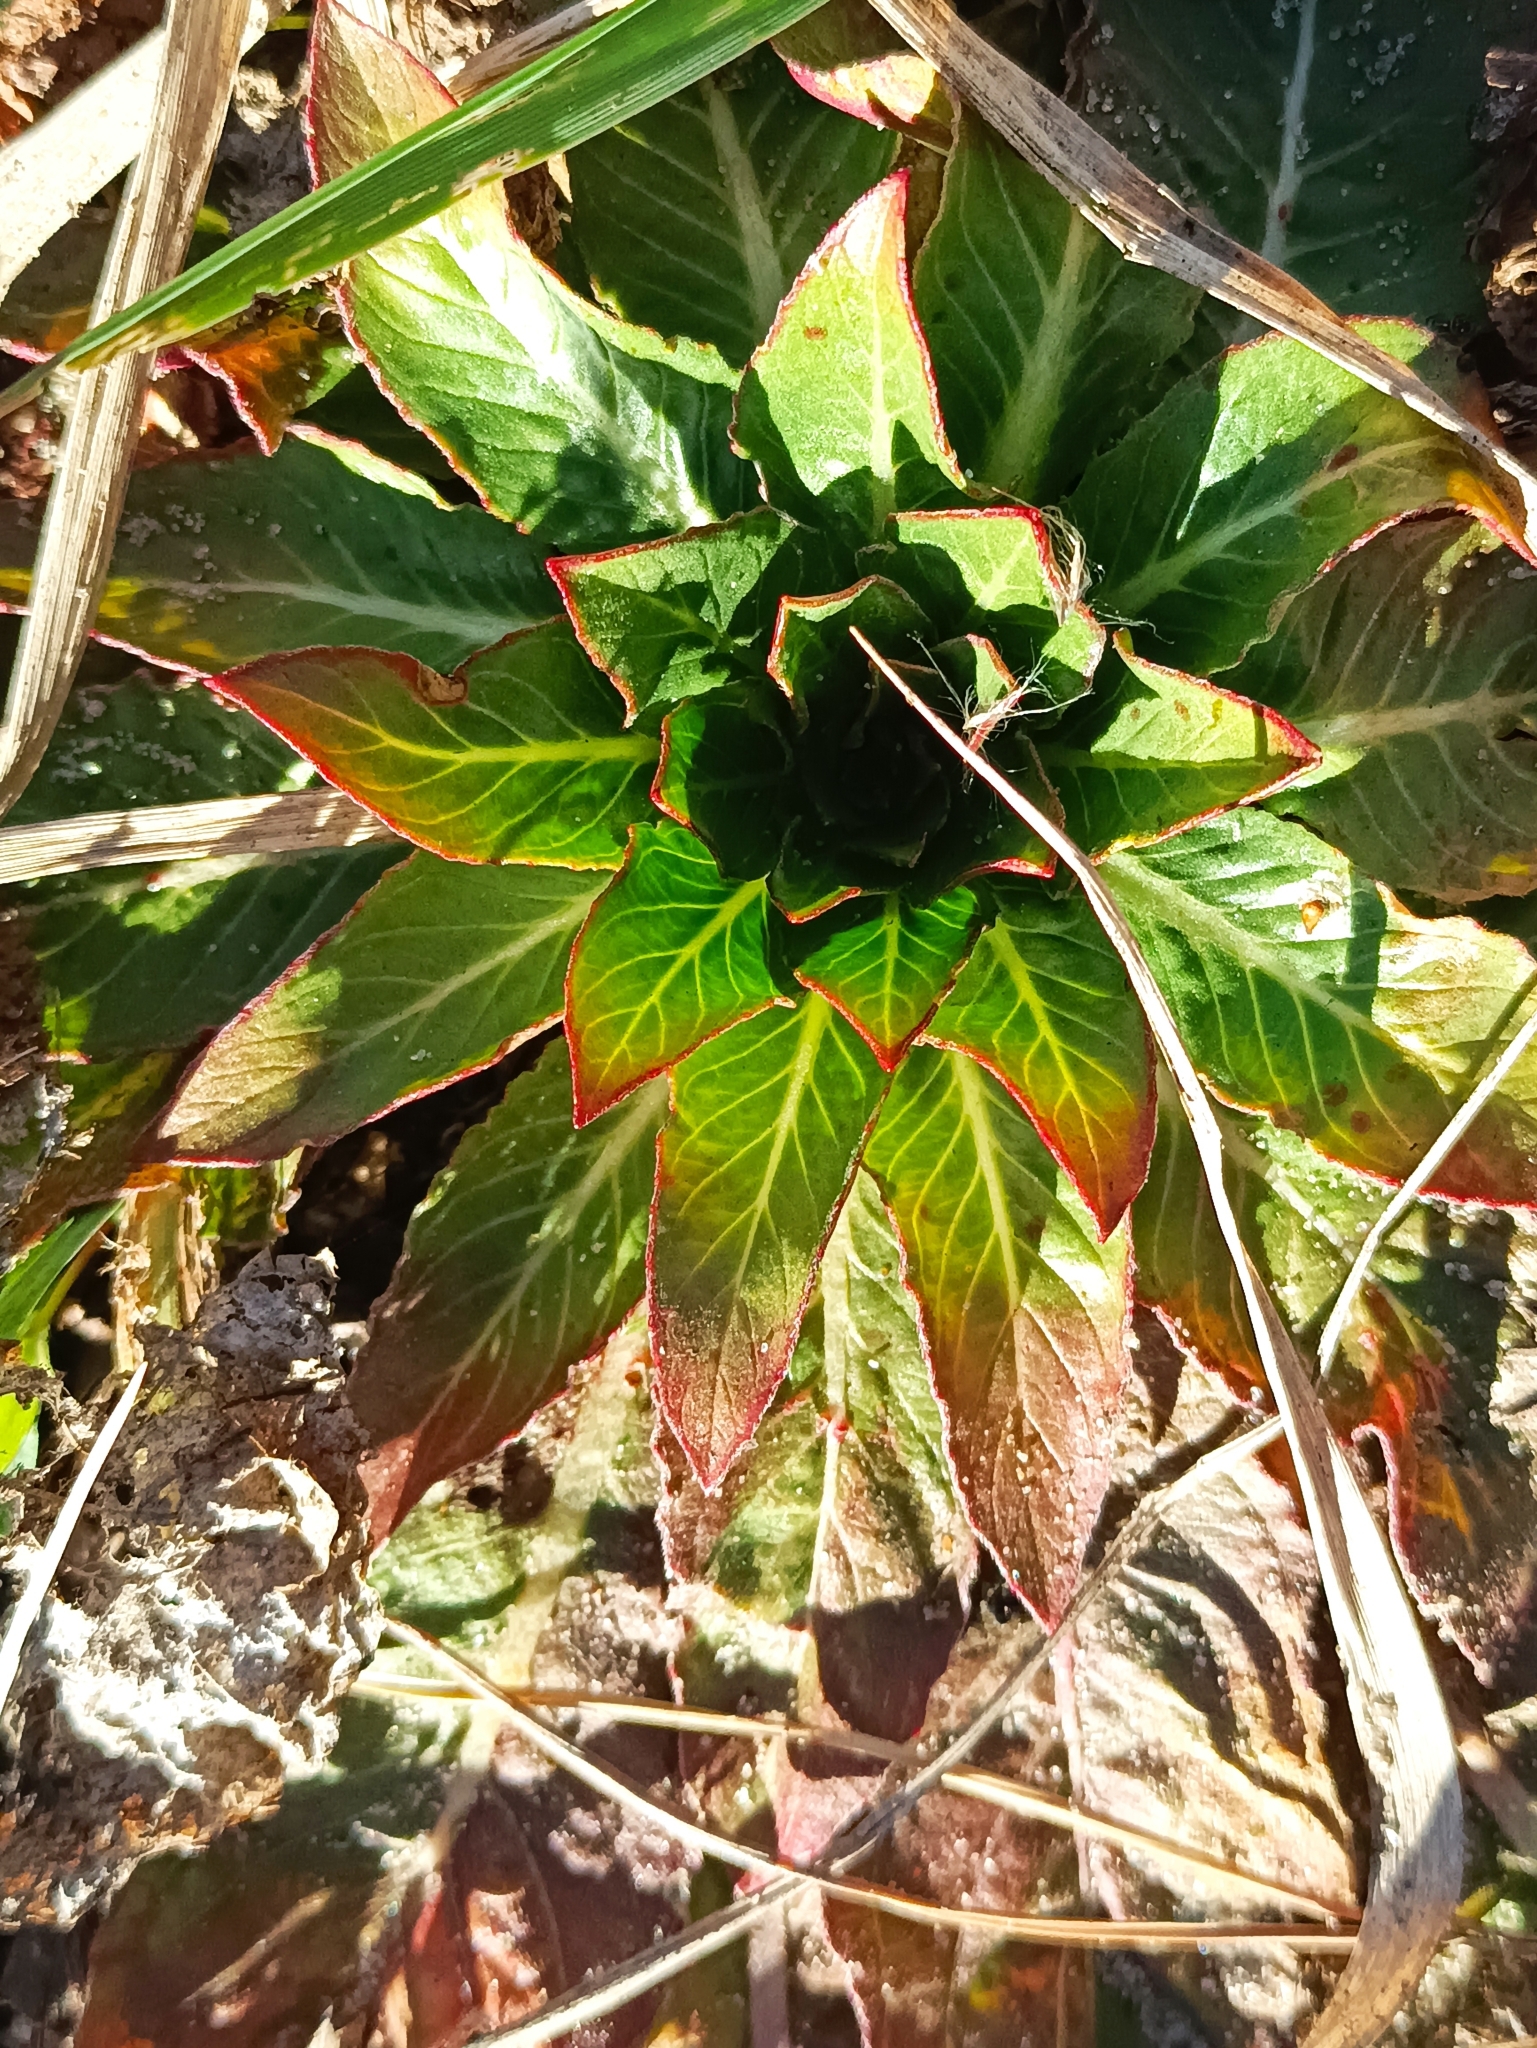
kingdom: Plantae
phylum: Tracheophyta
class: Magnoliopsida
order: Myrtales
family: Onagraceae
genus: Oenothera
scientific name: Oenothera
